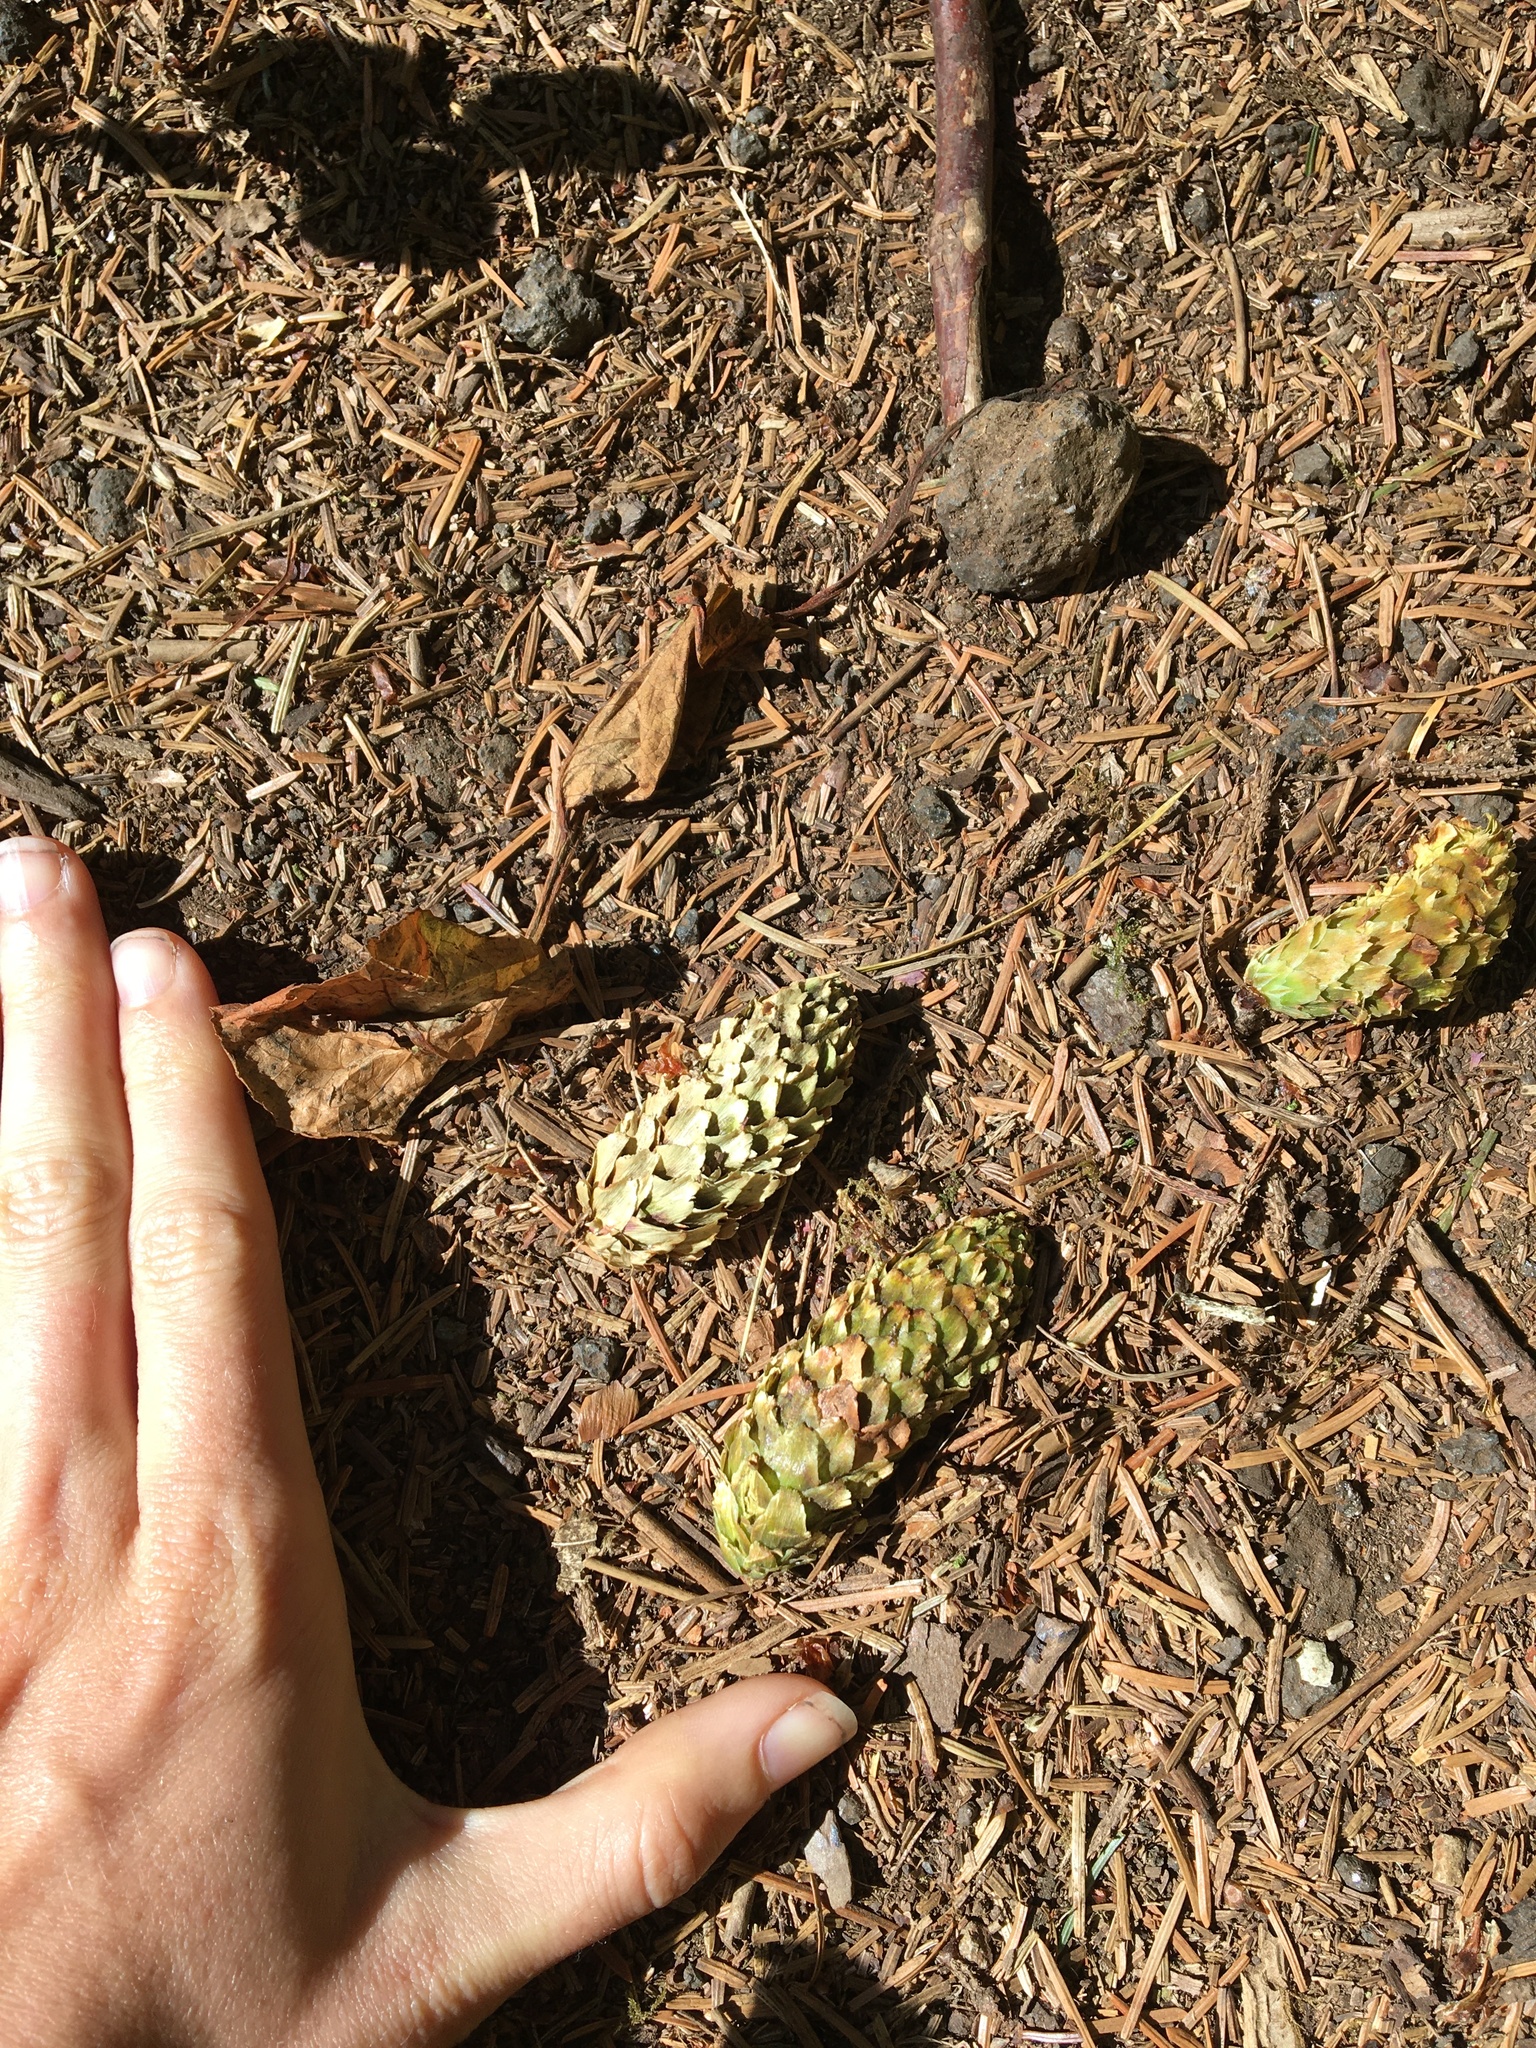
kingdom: Plantae
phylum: Tracheophyta
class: Pinopsida
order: Pinales
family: Pinaceae
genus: Picea
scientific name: Picea sitchensis
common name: Sitka spruce
